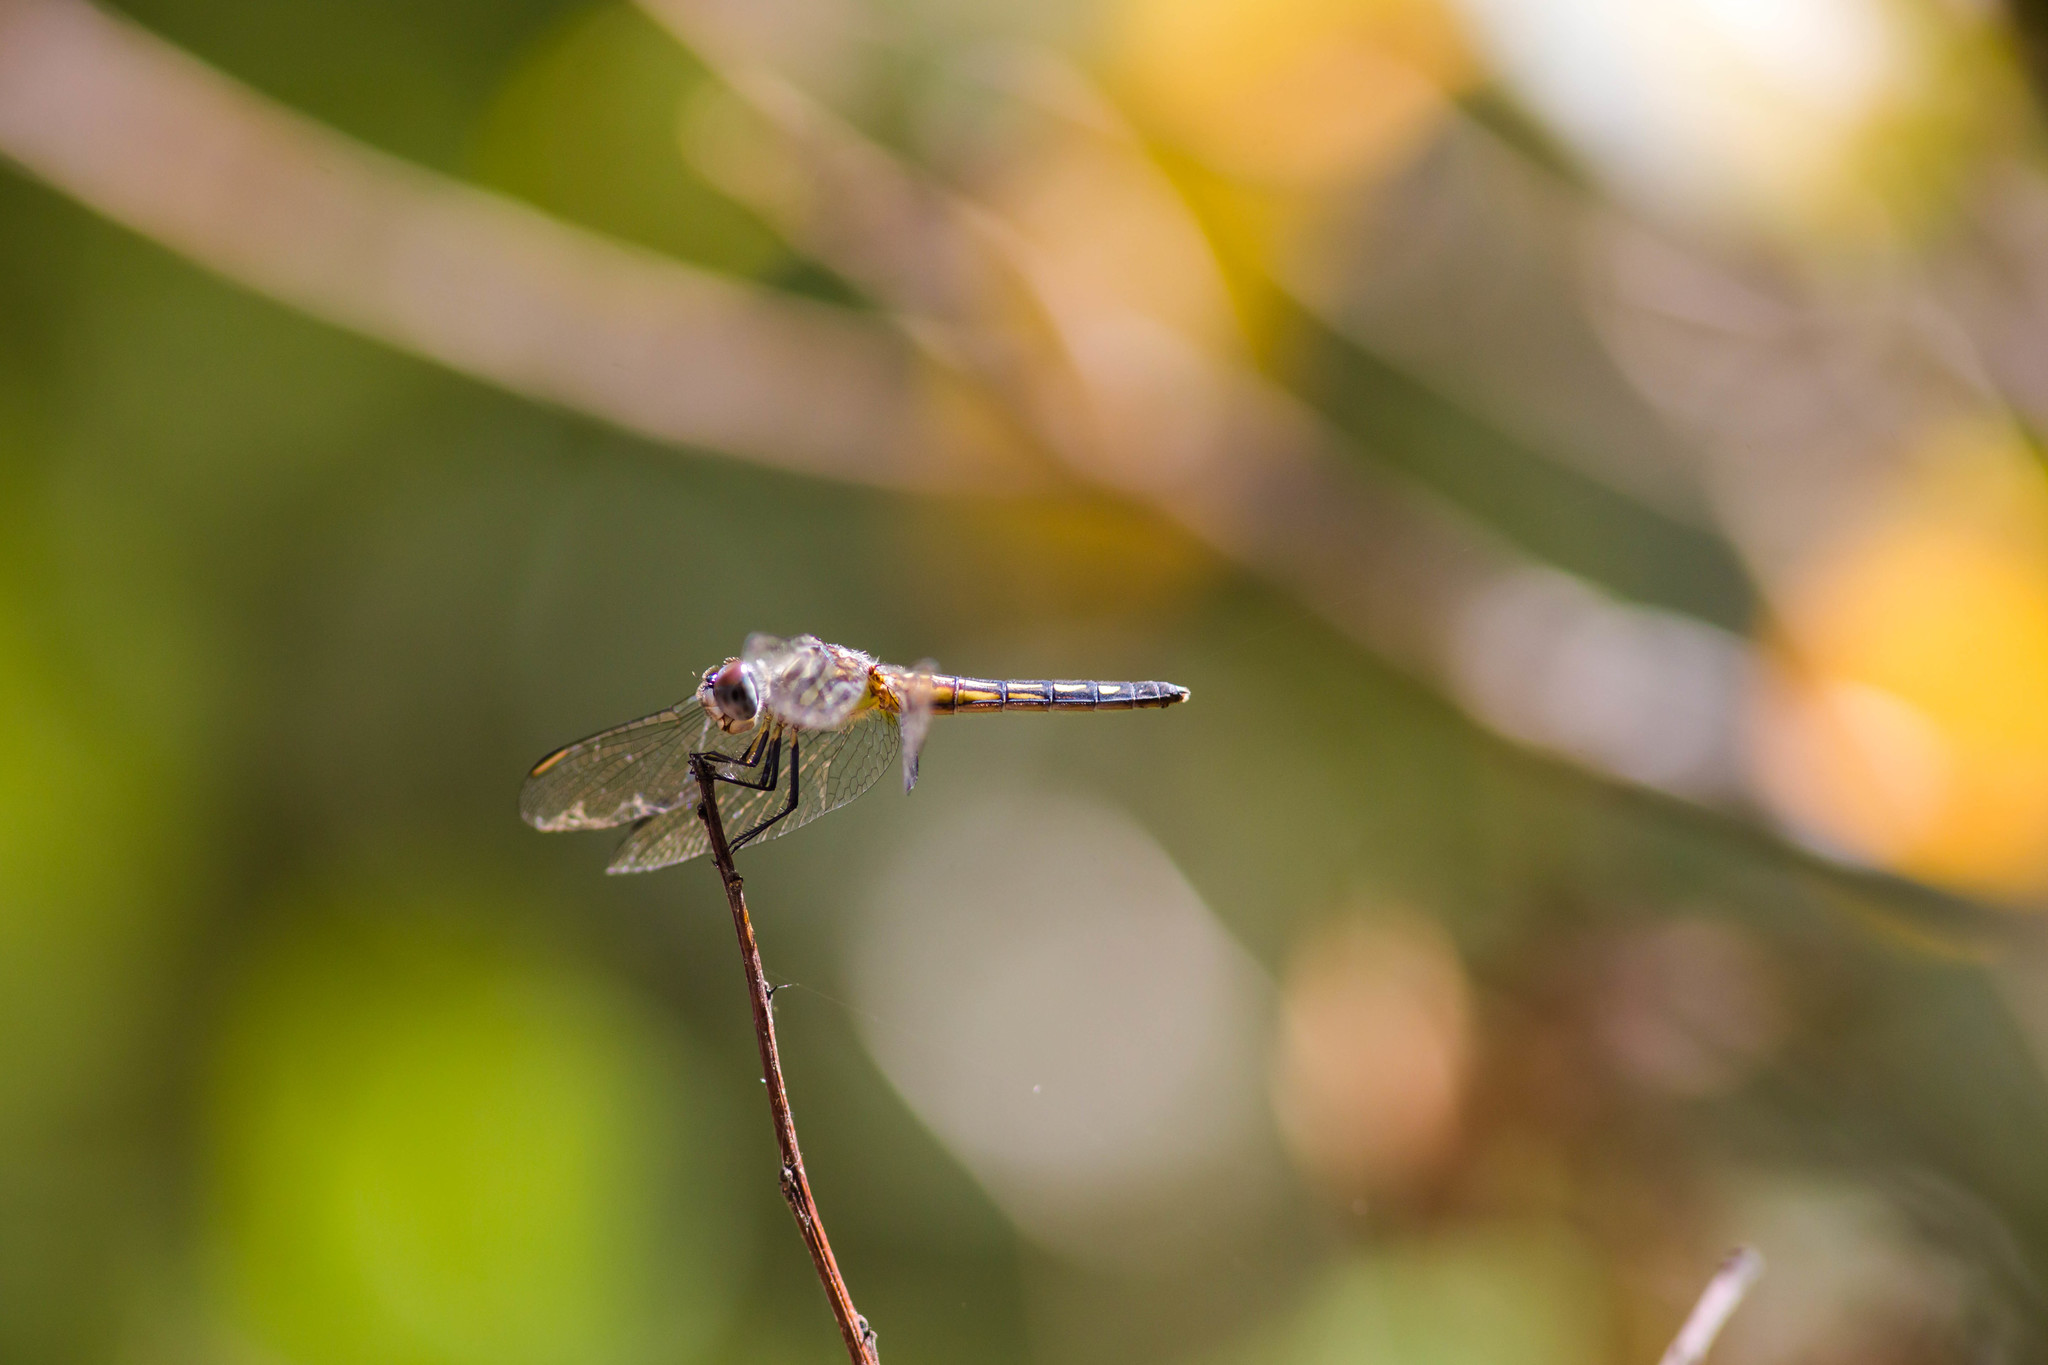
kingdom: Animalia
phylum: Arthropoda
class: Insecta
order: Odonata
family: Libellulidae
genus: Pachydiplax
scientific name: Pachydiplax longipennis
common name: Blue dasher
